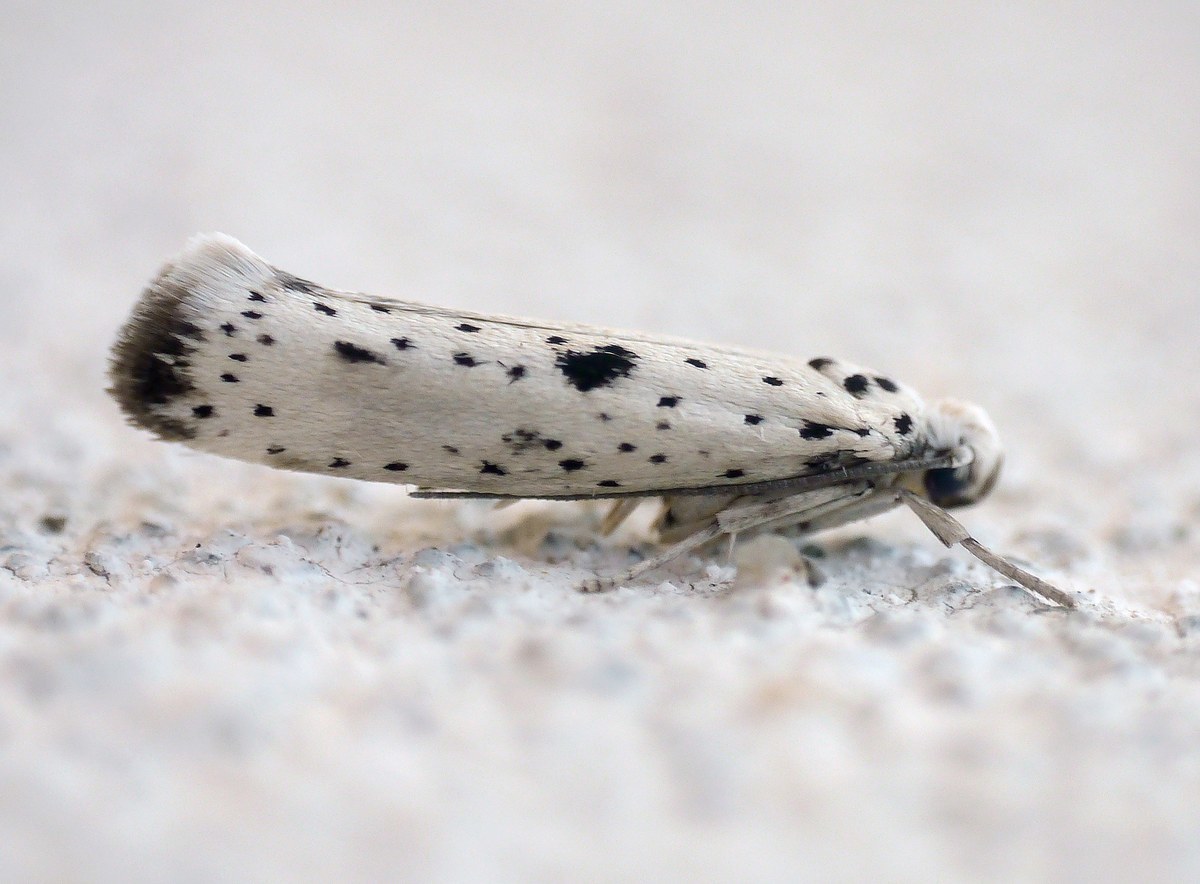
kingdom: Animalia
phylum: Arthropoda
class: Insecta
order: Lepidoptera
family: Yponomeutidae
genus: Yponomeuta
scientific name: Yponomeuta plumbella
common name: Black-tipped ermine
